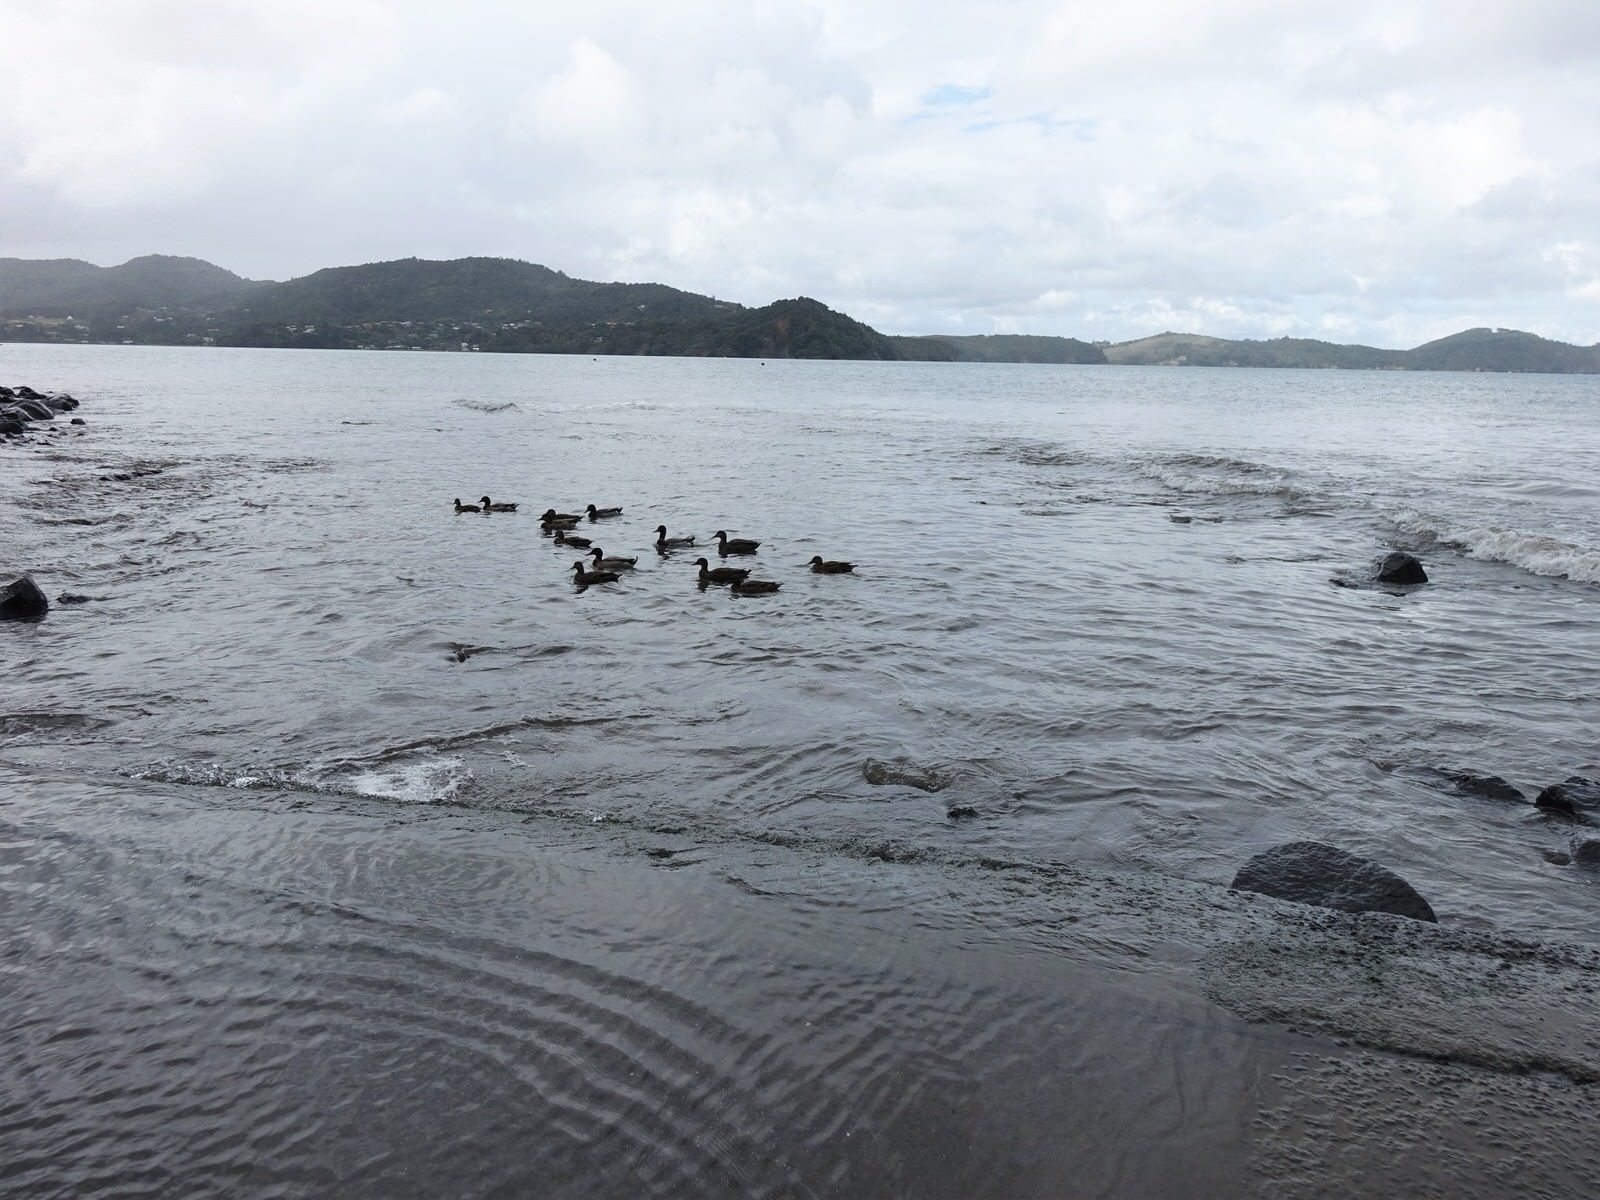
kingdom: Animalia
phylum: Chordata
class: Aves
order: Anseriformes
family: Anatidae
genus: Anas
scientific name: Anas platyrhynchos
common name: Mallard
